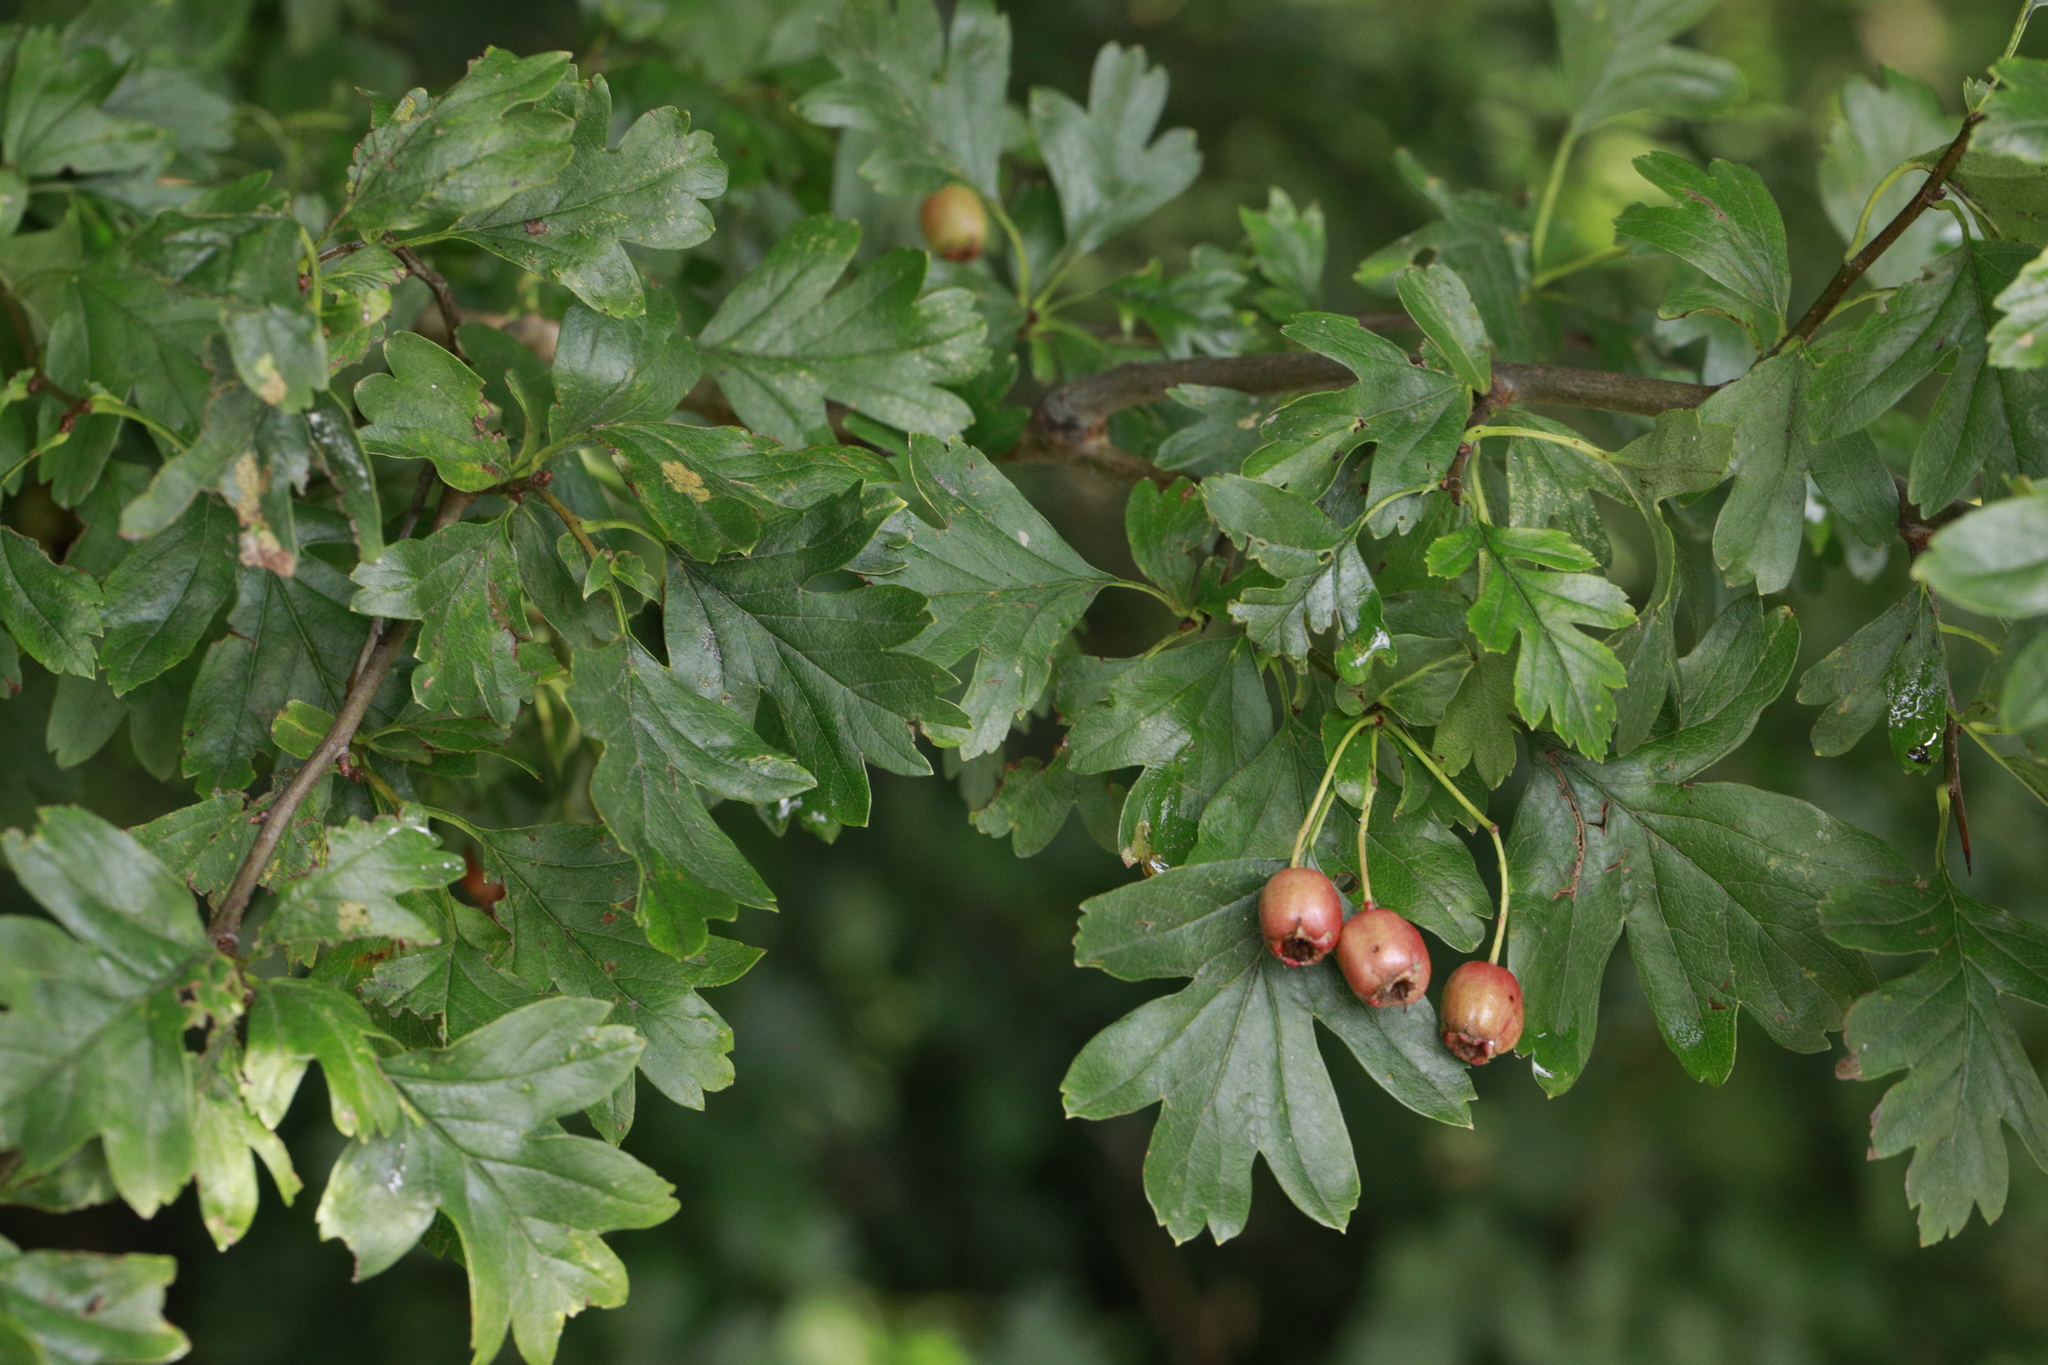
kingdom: Plantae
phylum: Tracheophyta
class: Magnoliopsida
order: Rosales
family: Rosaceae
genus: Crataegus
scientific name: Crataegus monogyna
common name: Hawthorn
